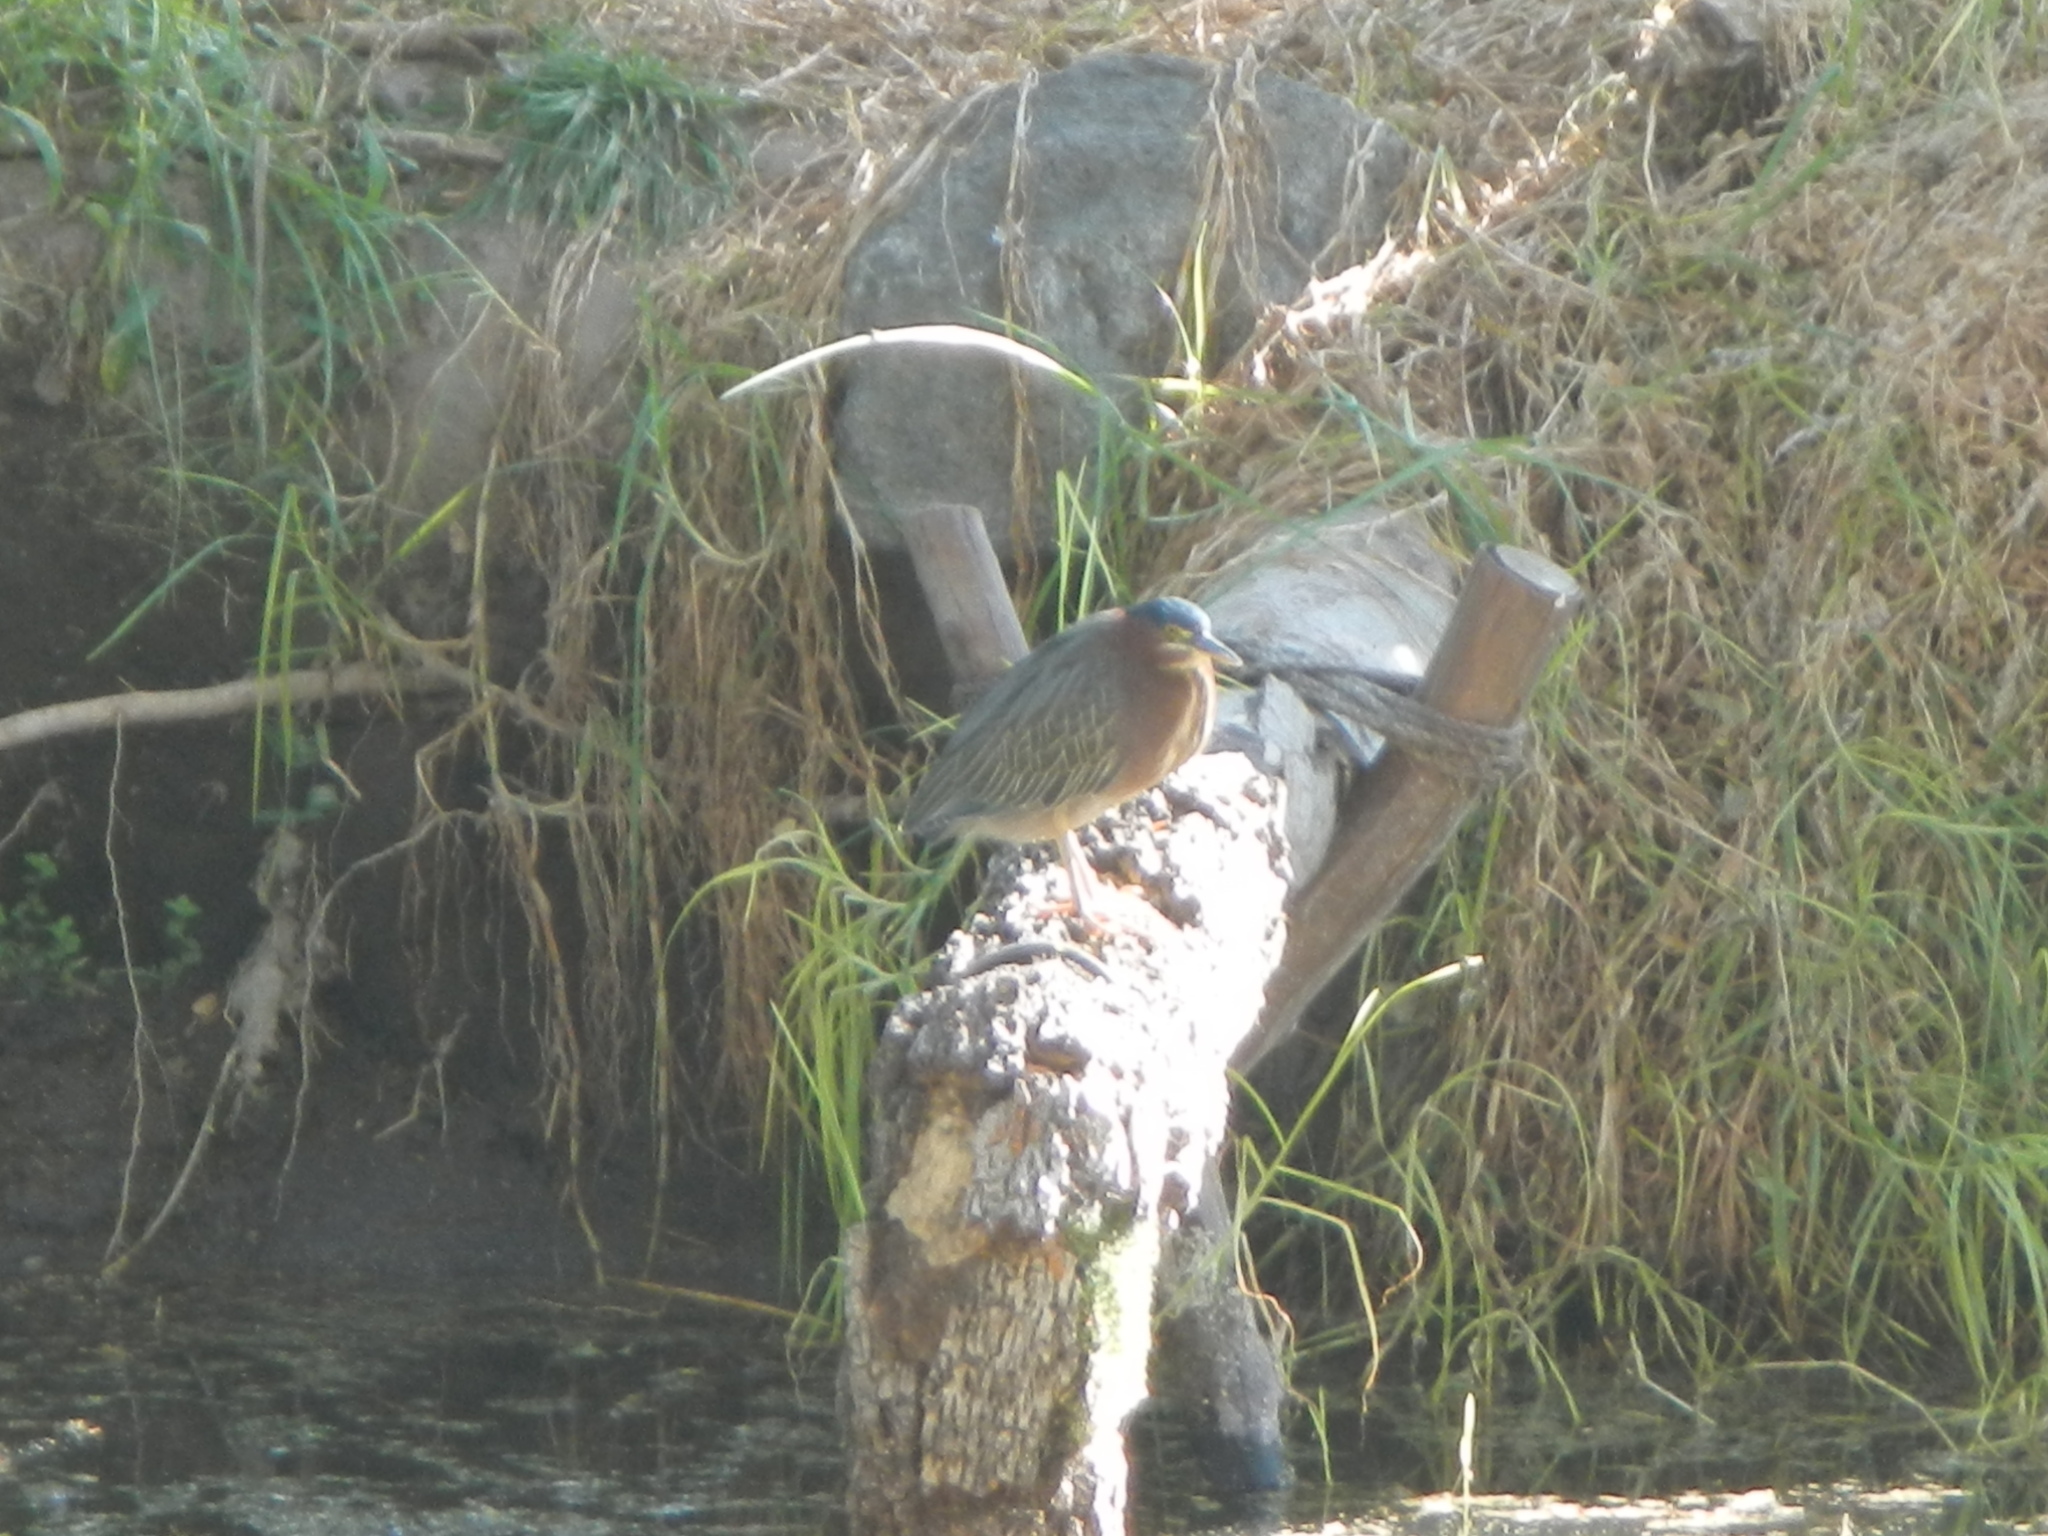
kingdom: Animalia
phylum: Chordata
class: Aves
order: Pelecaniformes
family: Ardeidae
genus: Butorides
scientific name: Butorides virescens
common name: Green heron
